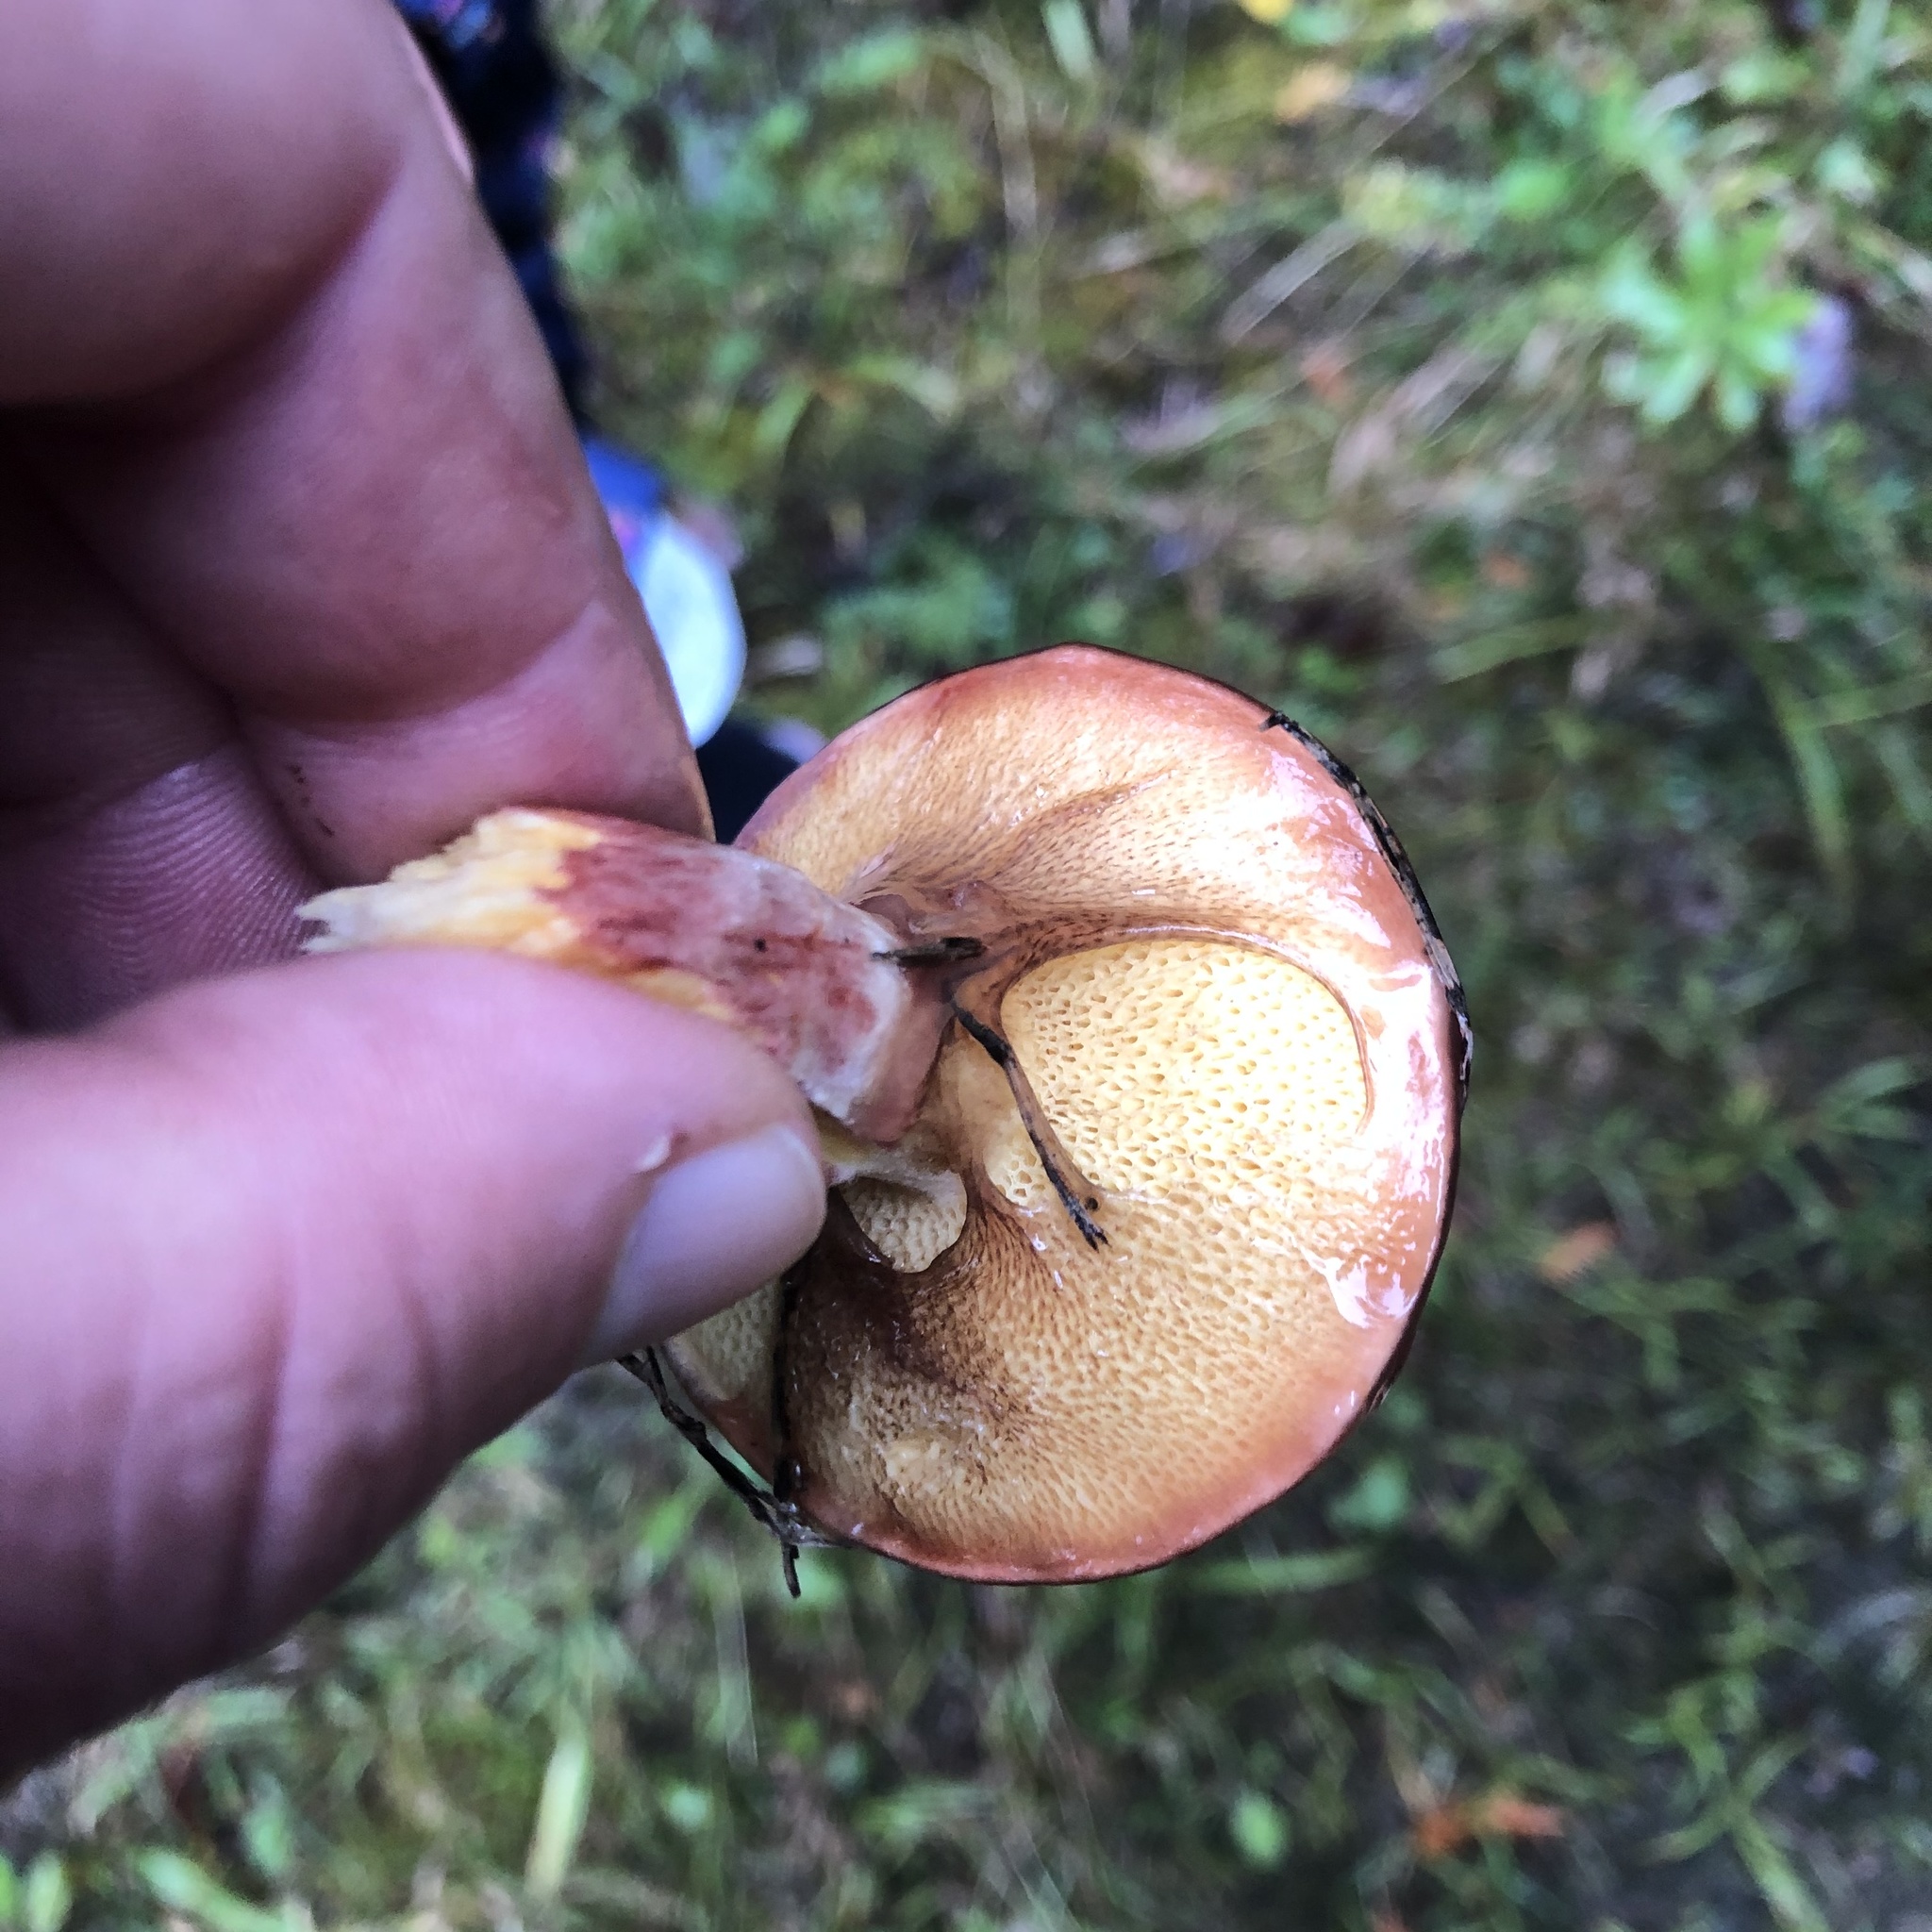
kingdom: Fungi
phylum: Basidiomycota
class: Agaricomycetes
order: Boletales
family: Suillaceae
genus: Boletinus
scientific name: Boletinus spectabilis
